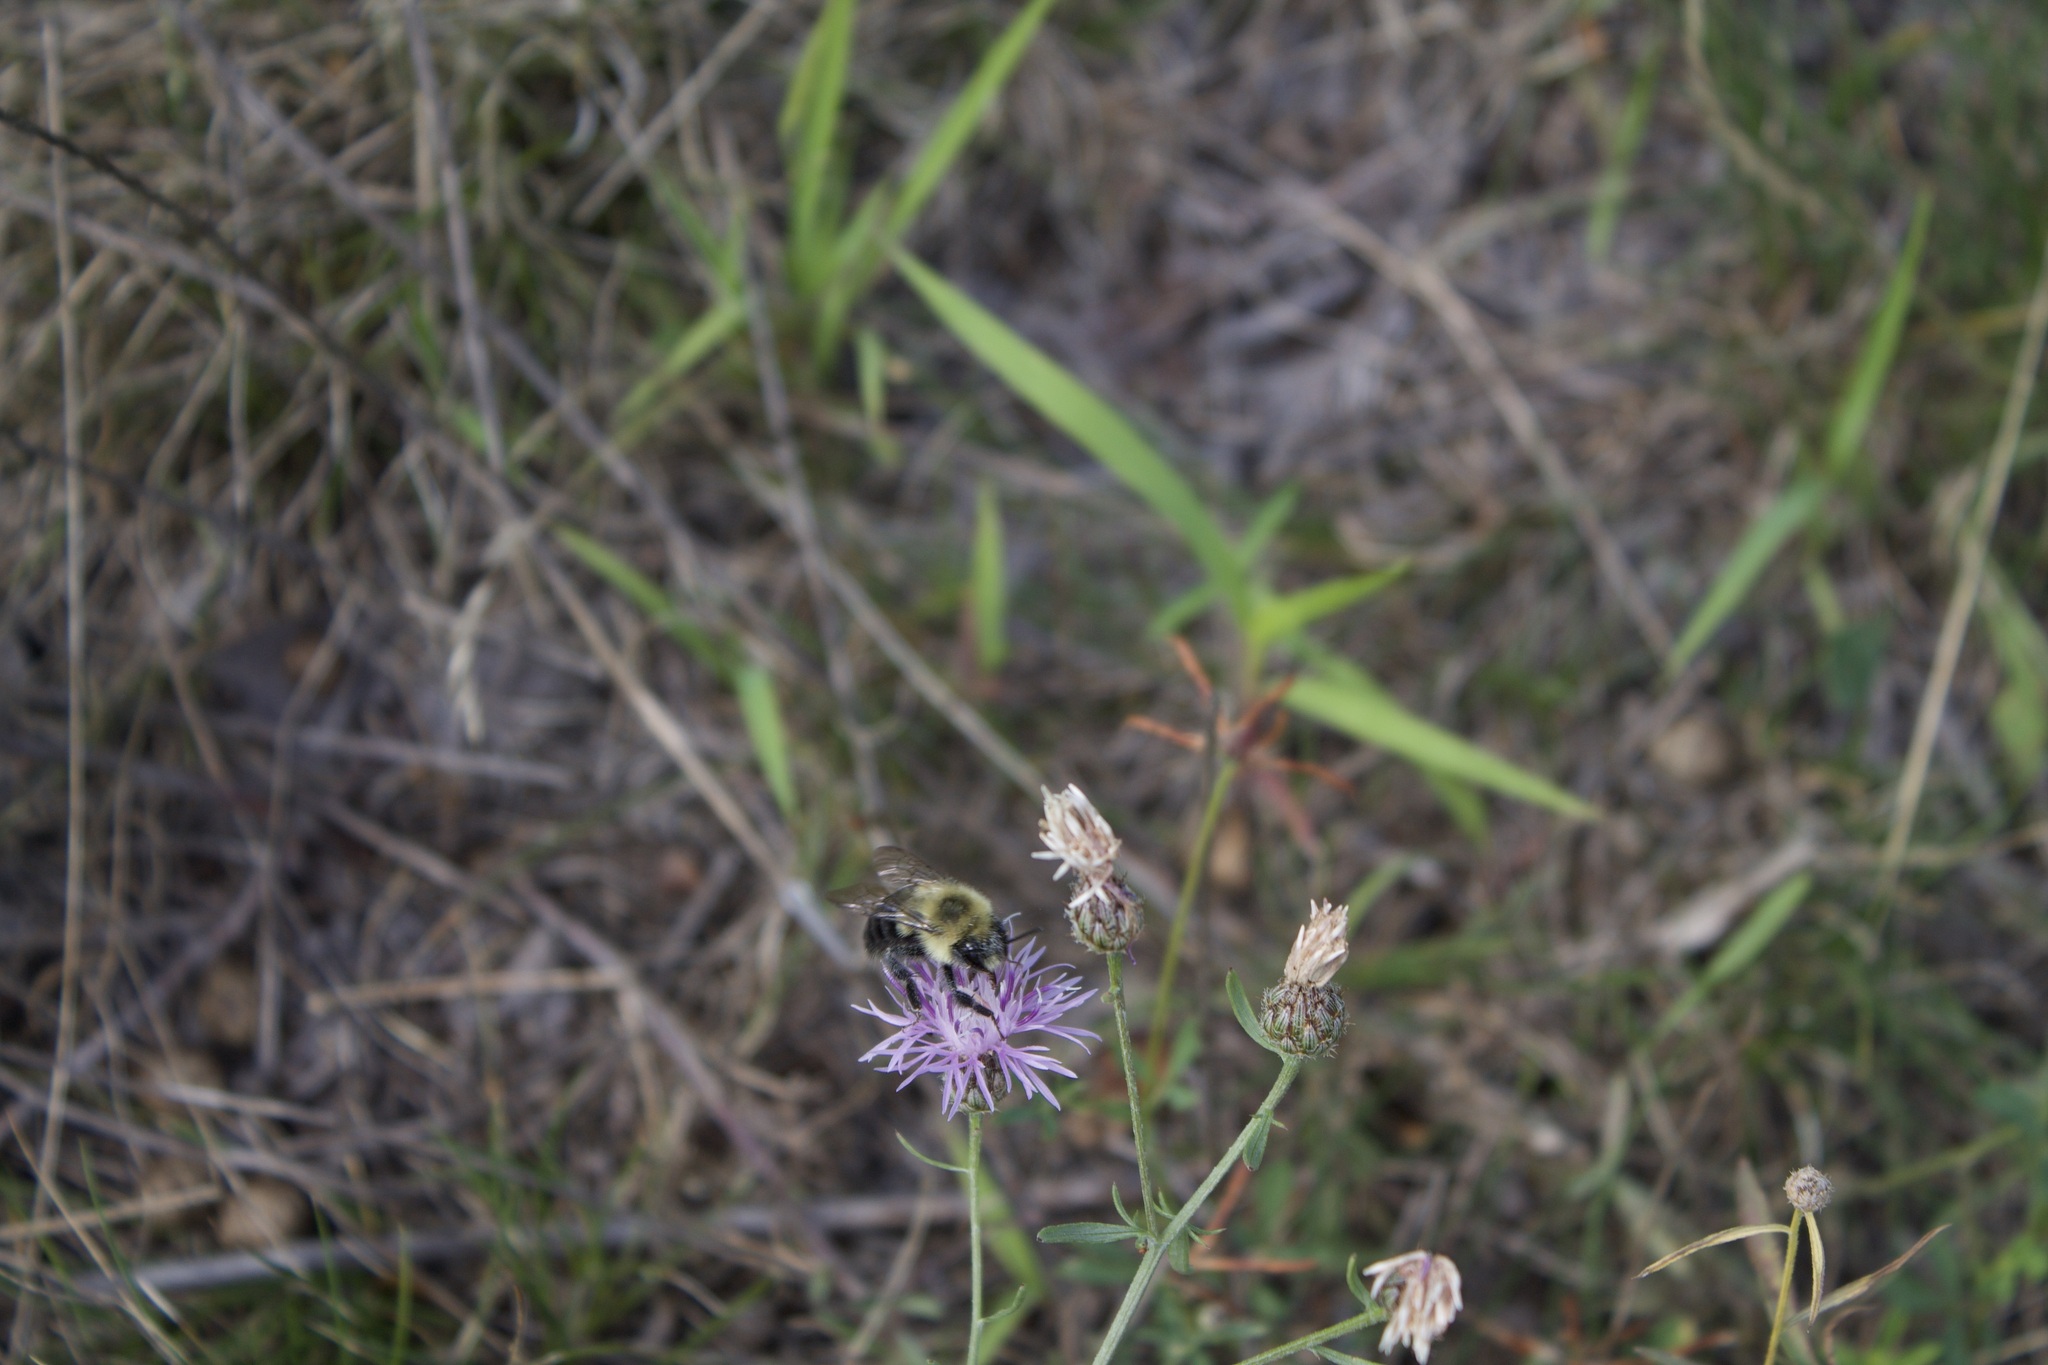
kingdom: Animalia
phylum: Arthropoda
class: Insecta
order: Hymenoptera
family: Apidae
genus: Bombus
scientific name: Bombus impatiens
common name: Common eastern bumble bee
